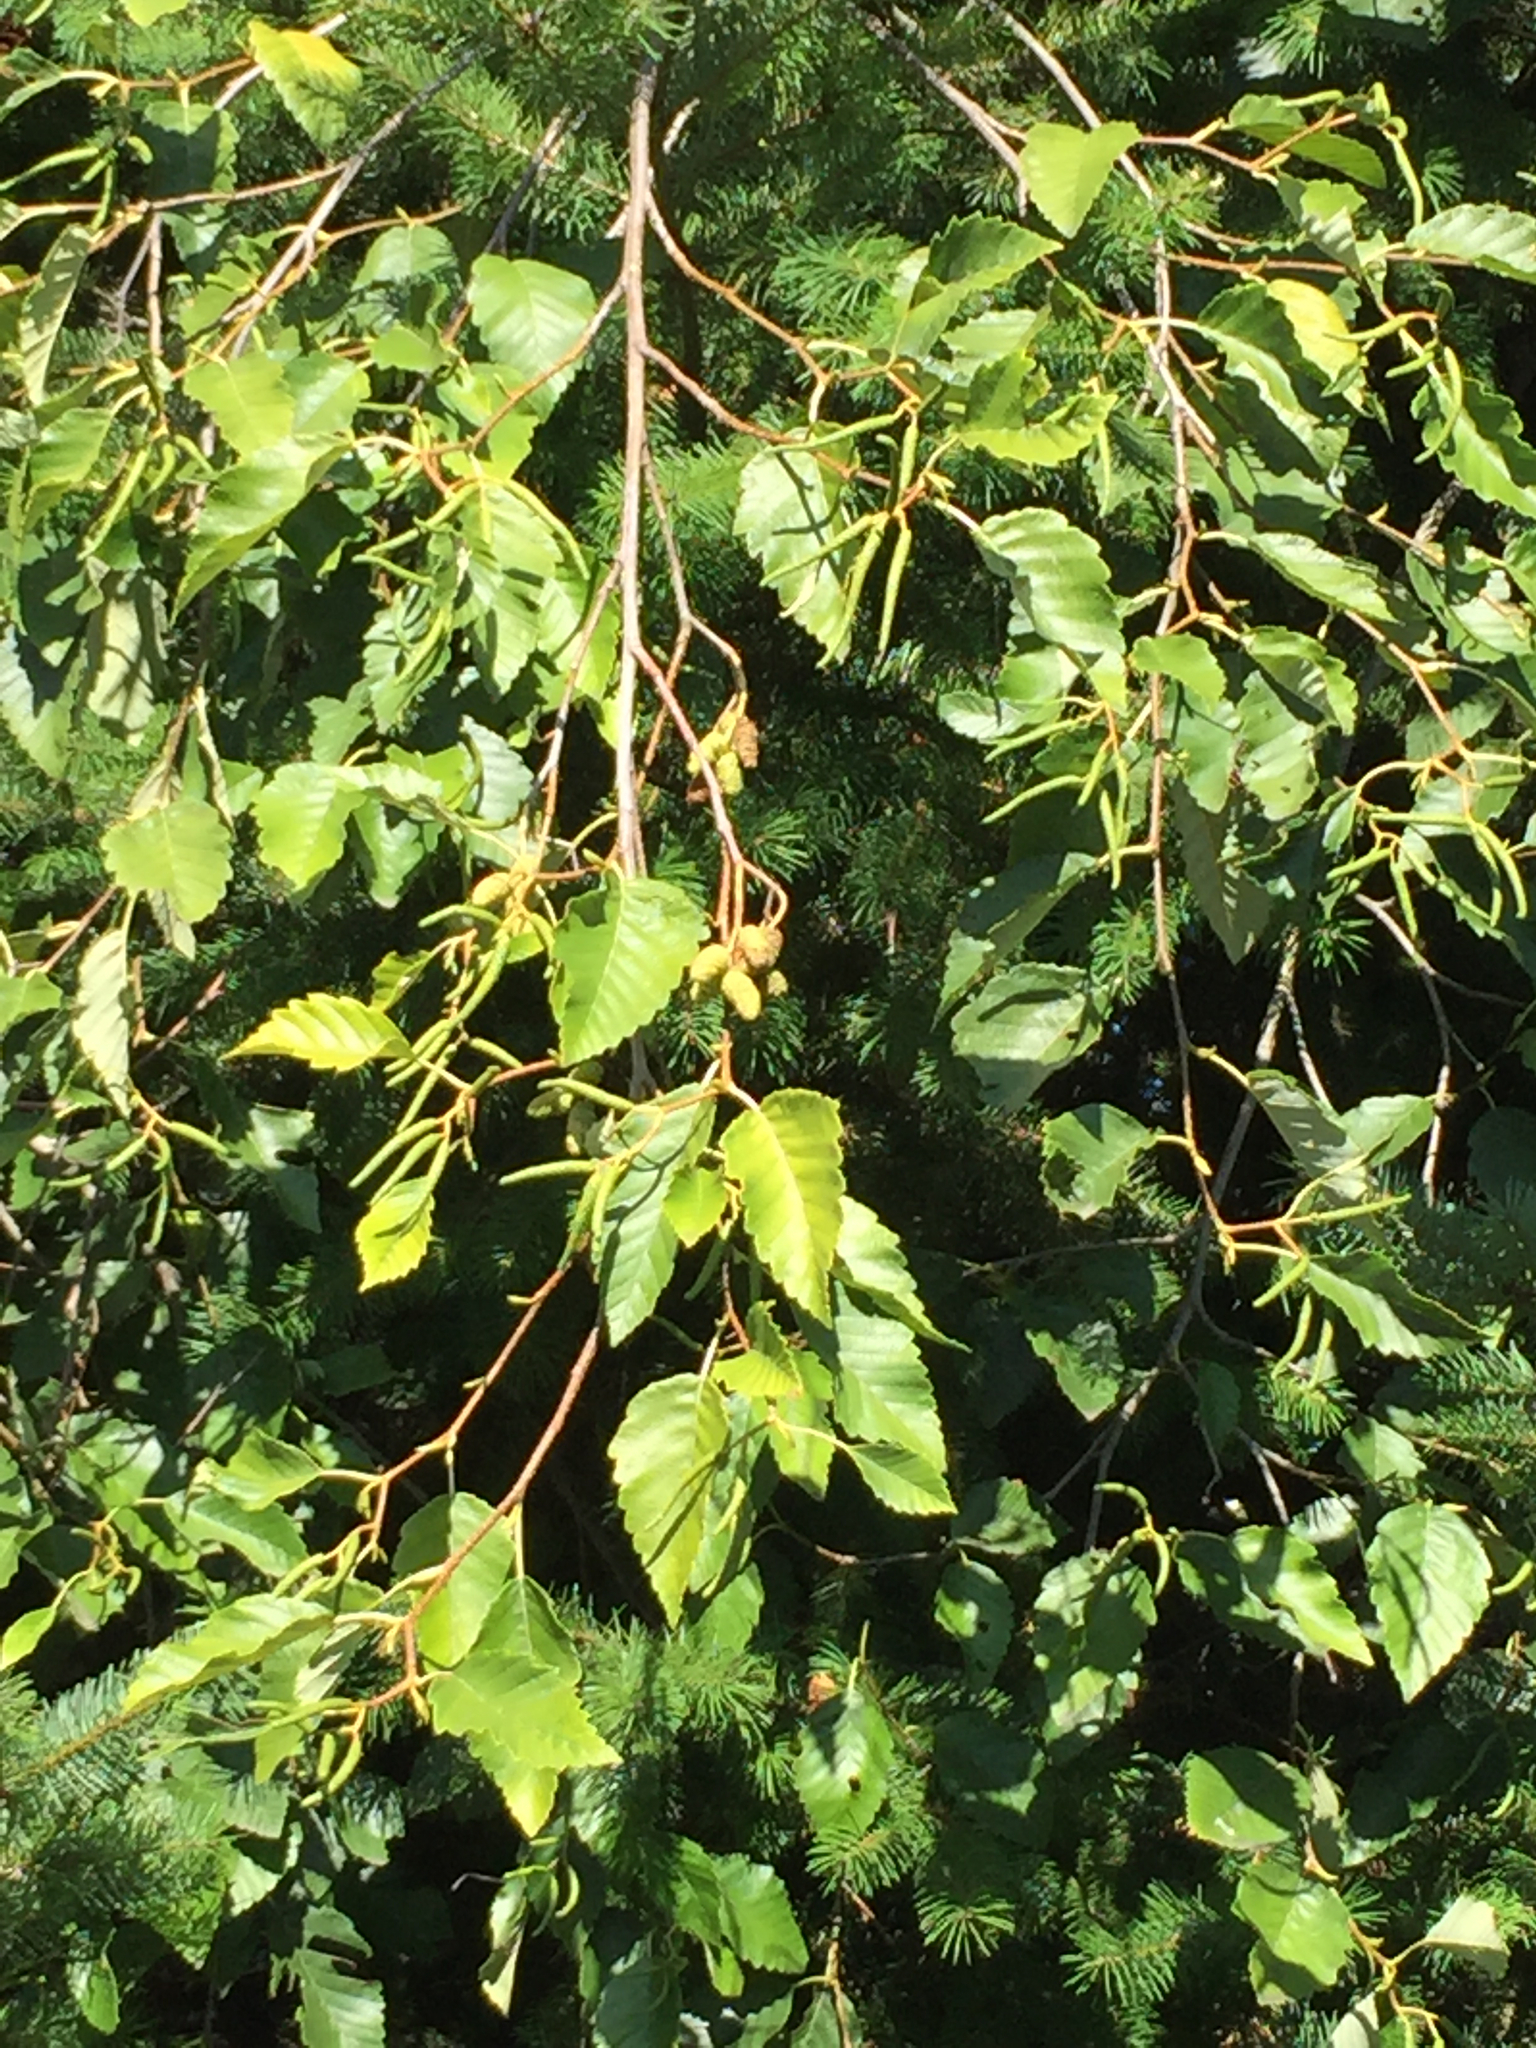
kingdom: Plantae
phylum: Tracheophyta
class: Magnoliopsida
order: Fagales
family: Betulaceae
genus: Alnus
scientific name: Alnus rubra
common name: Red alder
